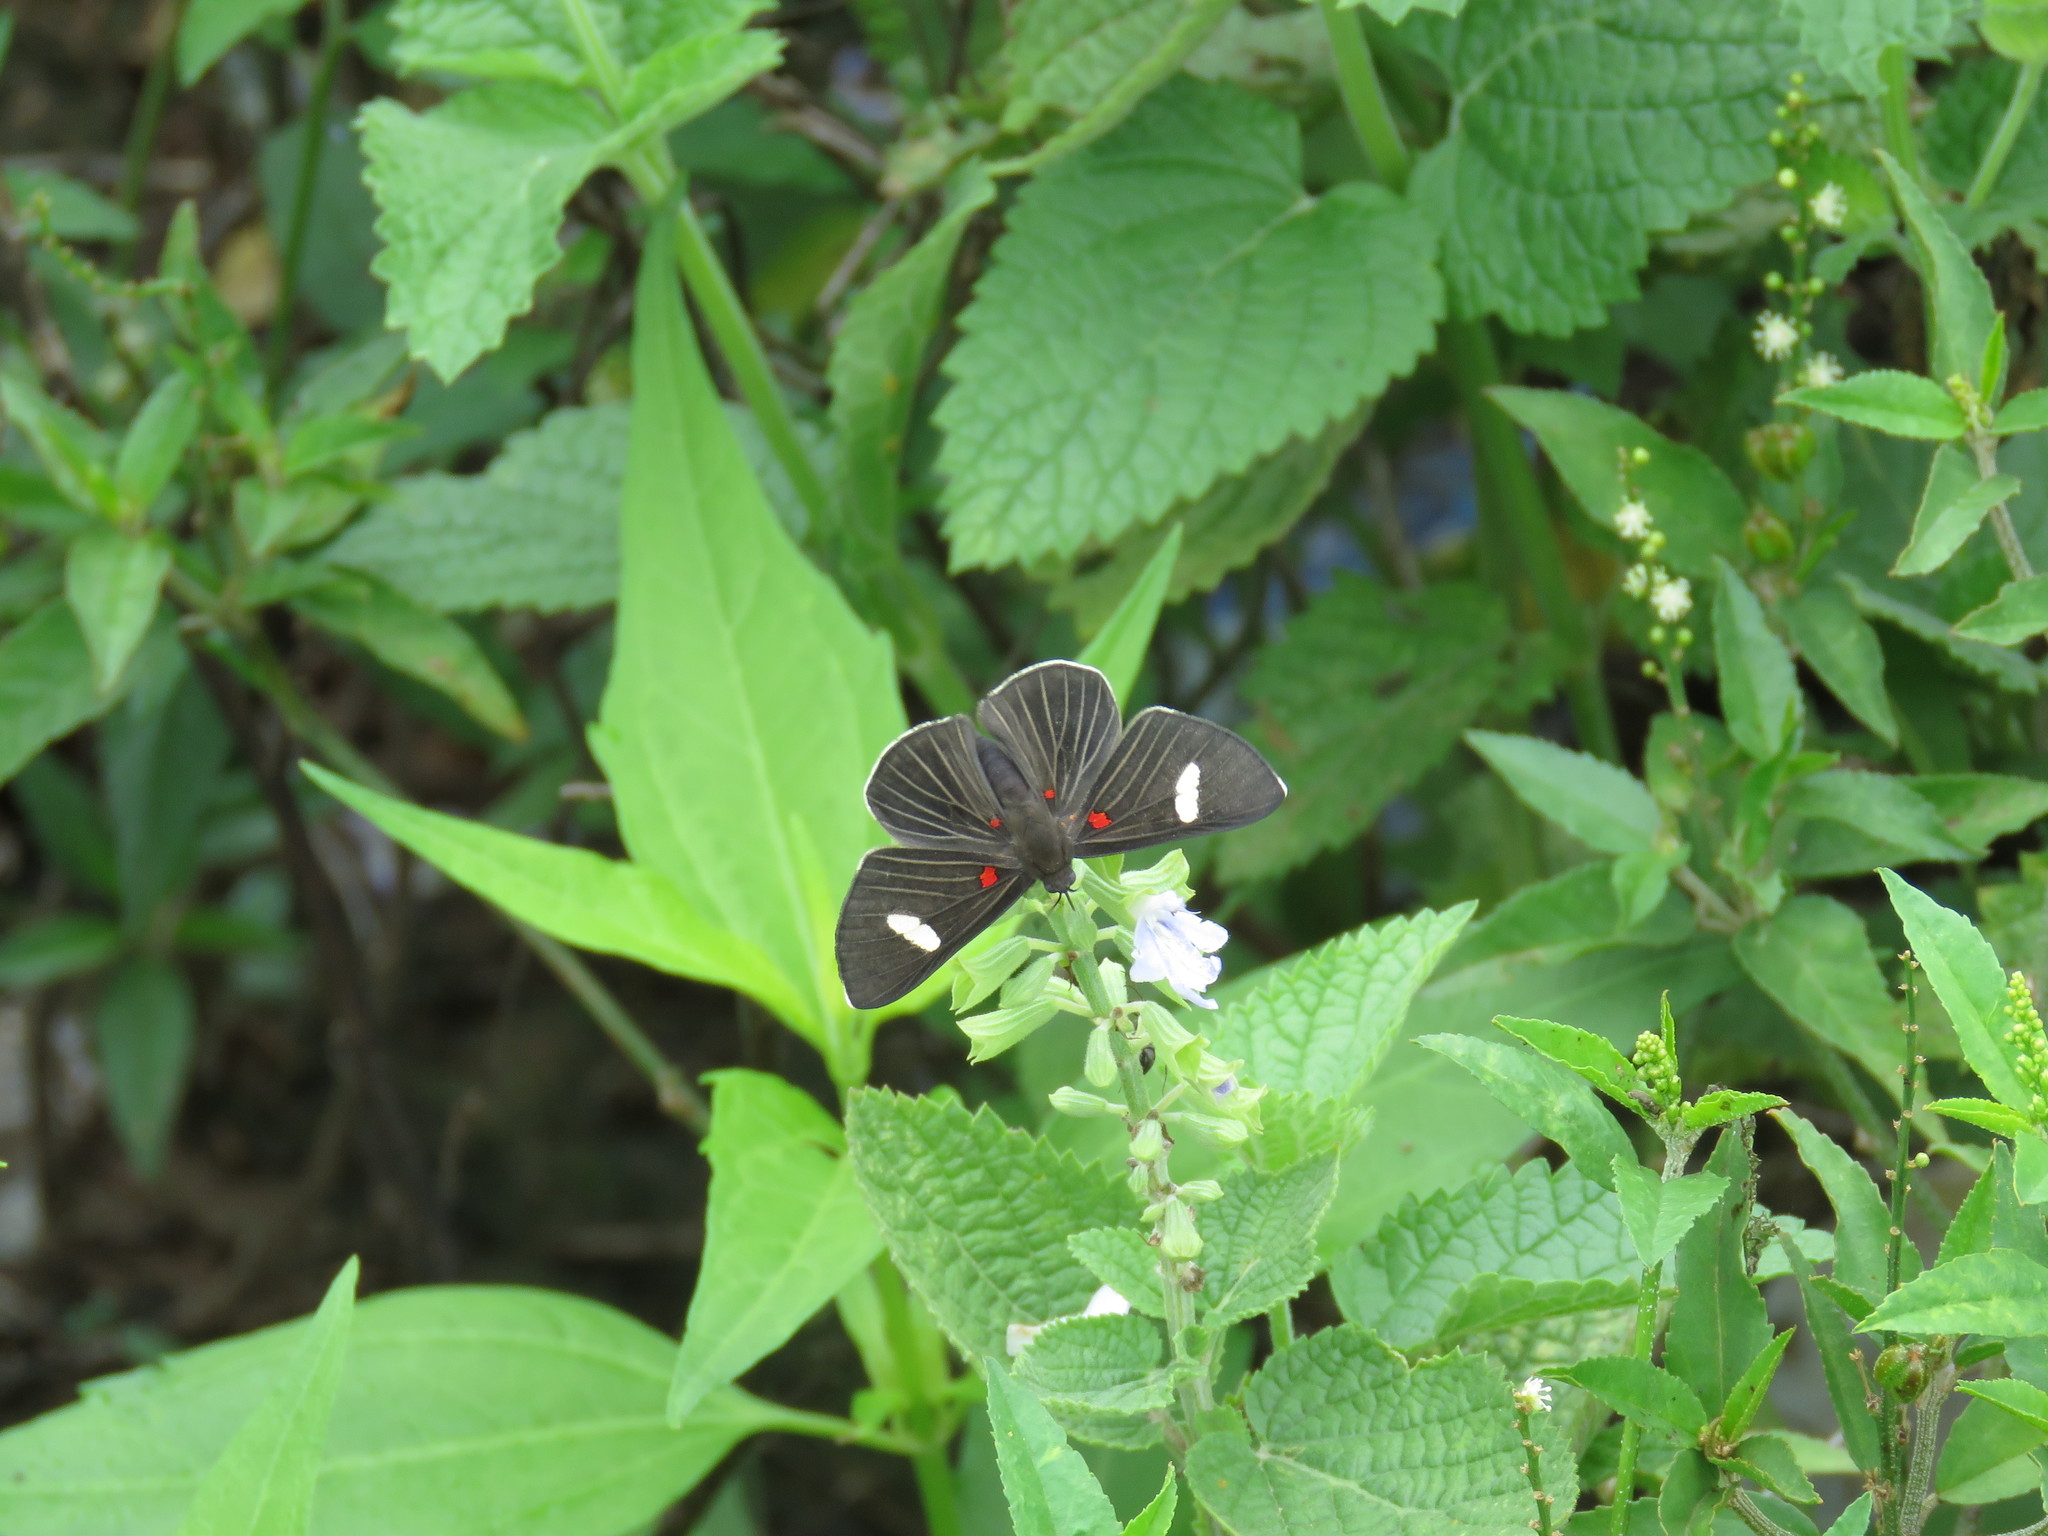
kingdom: Animalia
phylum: Arthropoda
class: Insecta
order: Lepidoptera
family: Lycaenidae
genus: Melanis
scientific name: Melanis aegates
